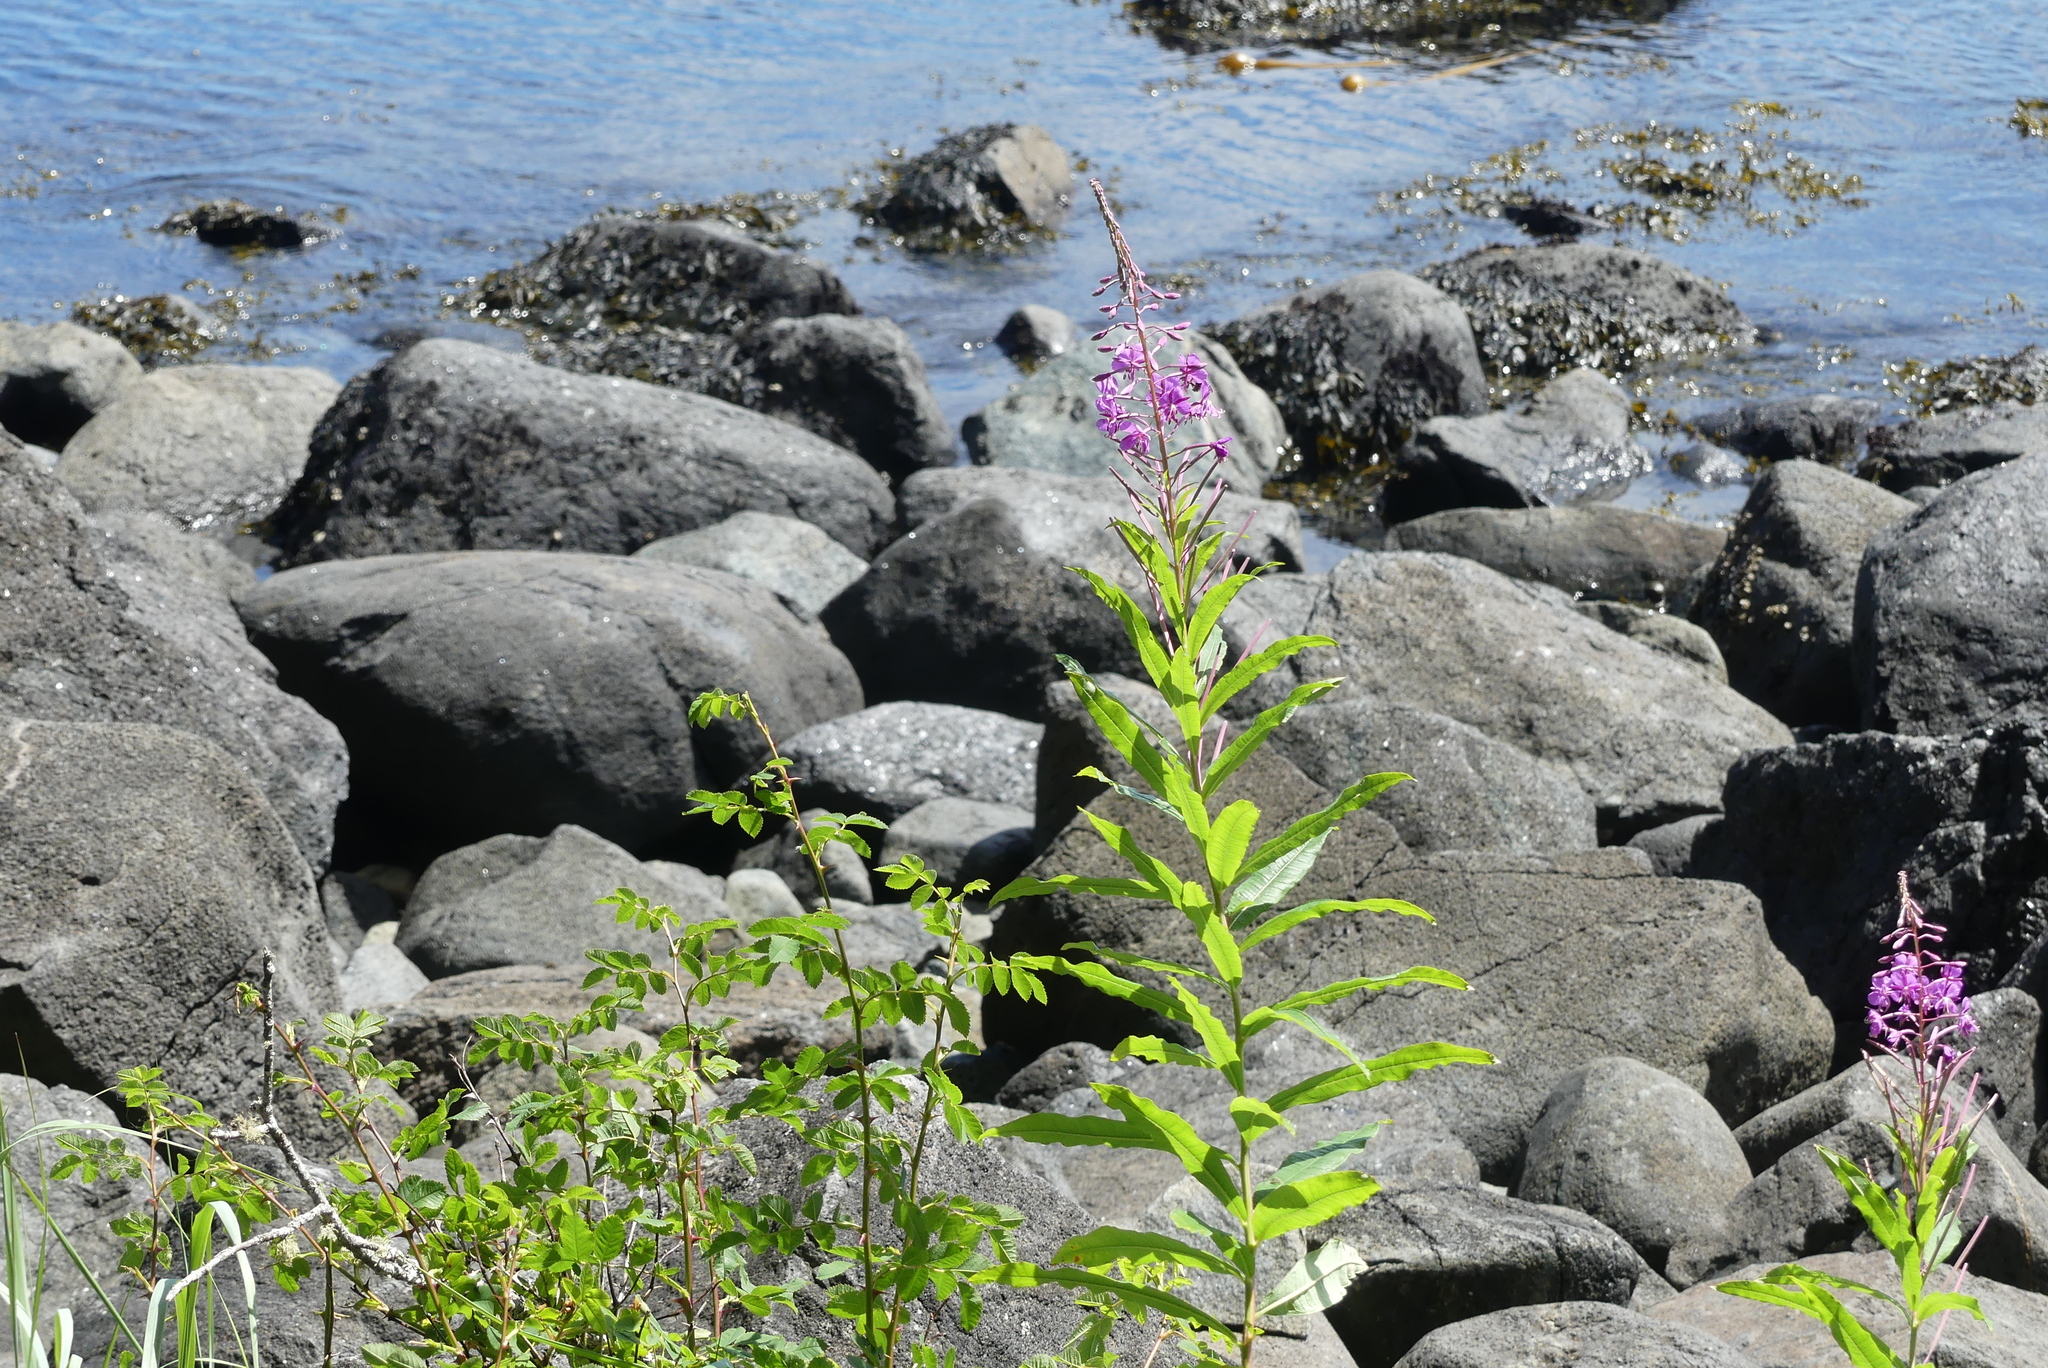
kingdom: Plantae
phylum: Tracheophyta
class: Magnoliopsida
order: Myrtales
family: Onagraceae
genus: Chamaenerion
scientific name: Chamaenerion angustifolium
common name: Fireweed
